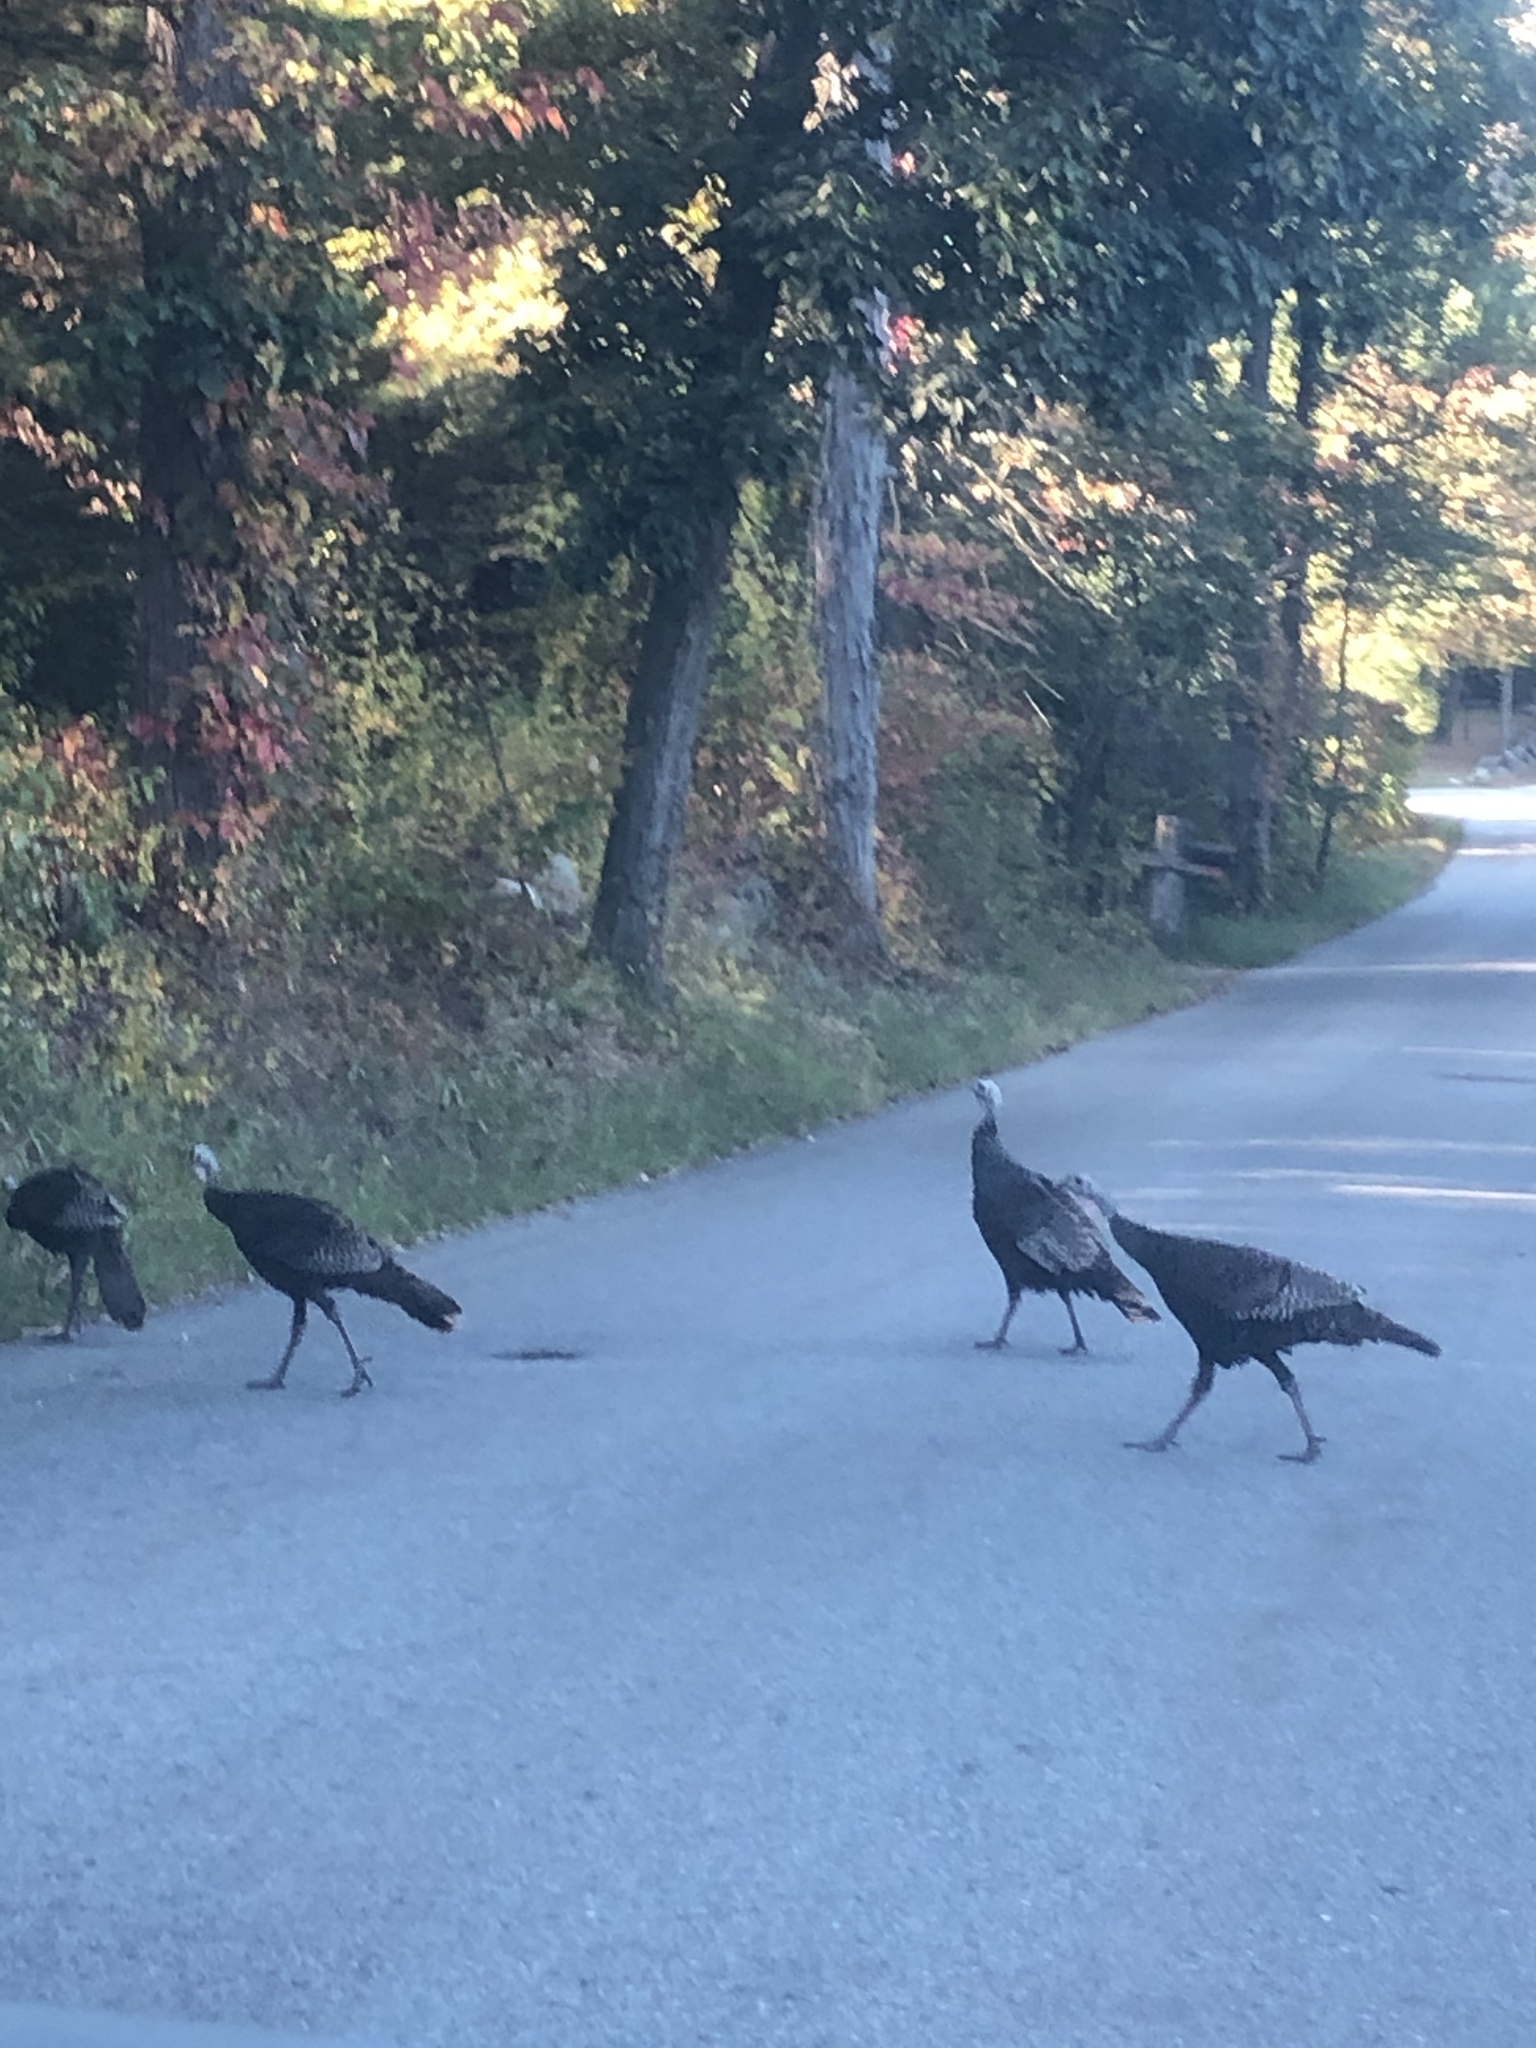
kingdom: Animalia
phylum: Chordata
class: Aves
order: Galliformes
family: Phasianidae
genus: Meleagris
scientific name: Meleagris gallopavo
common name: Wild turkey
